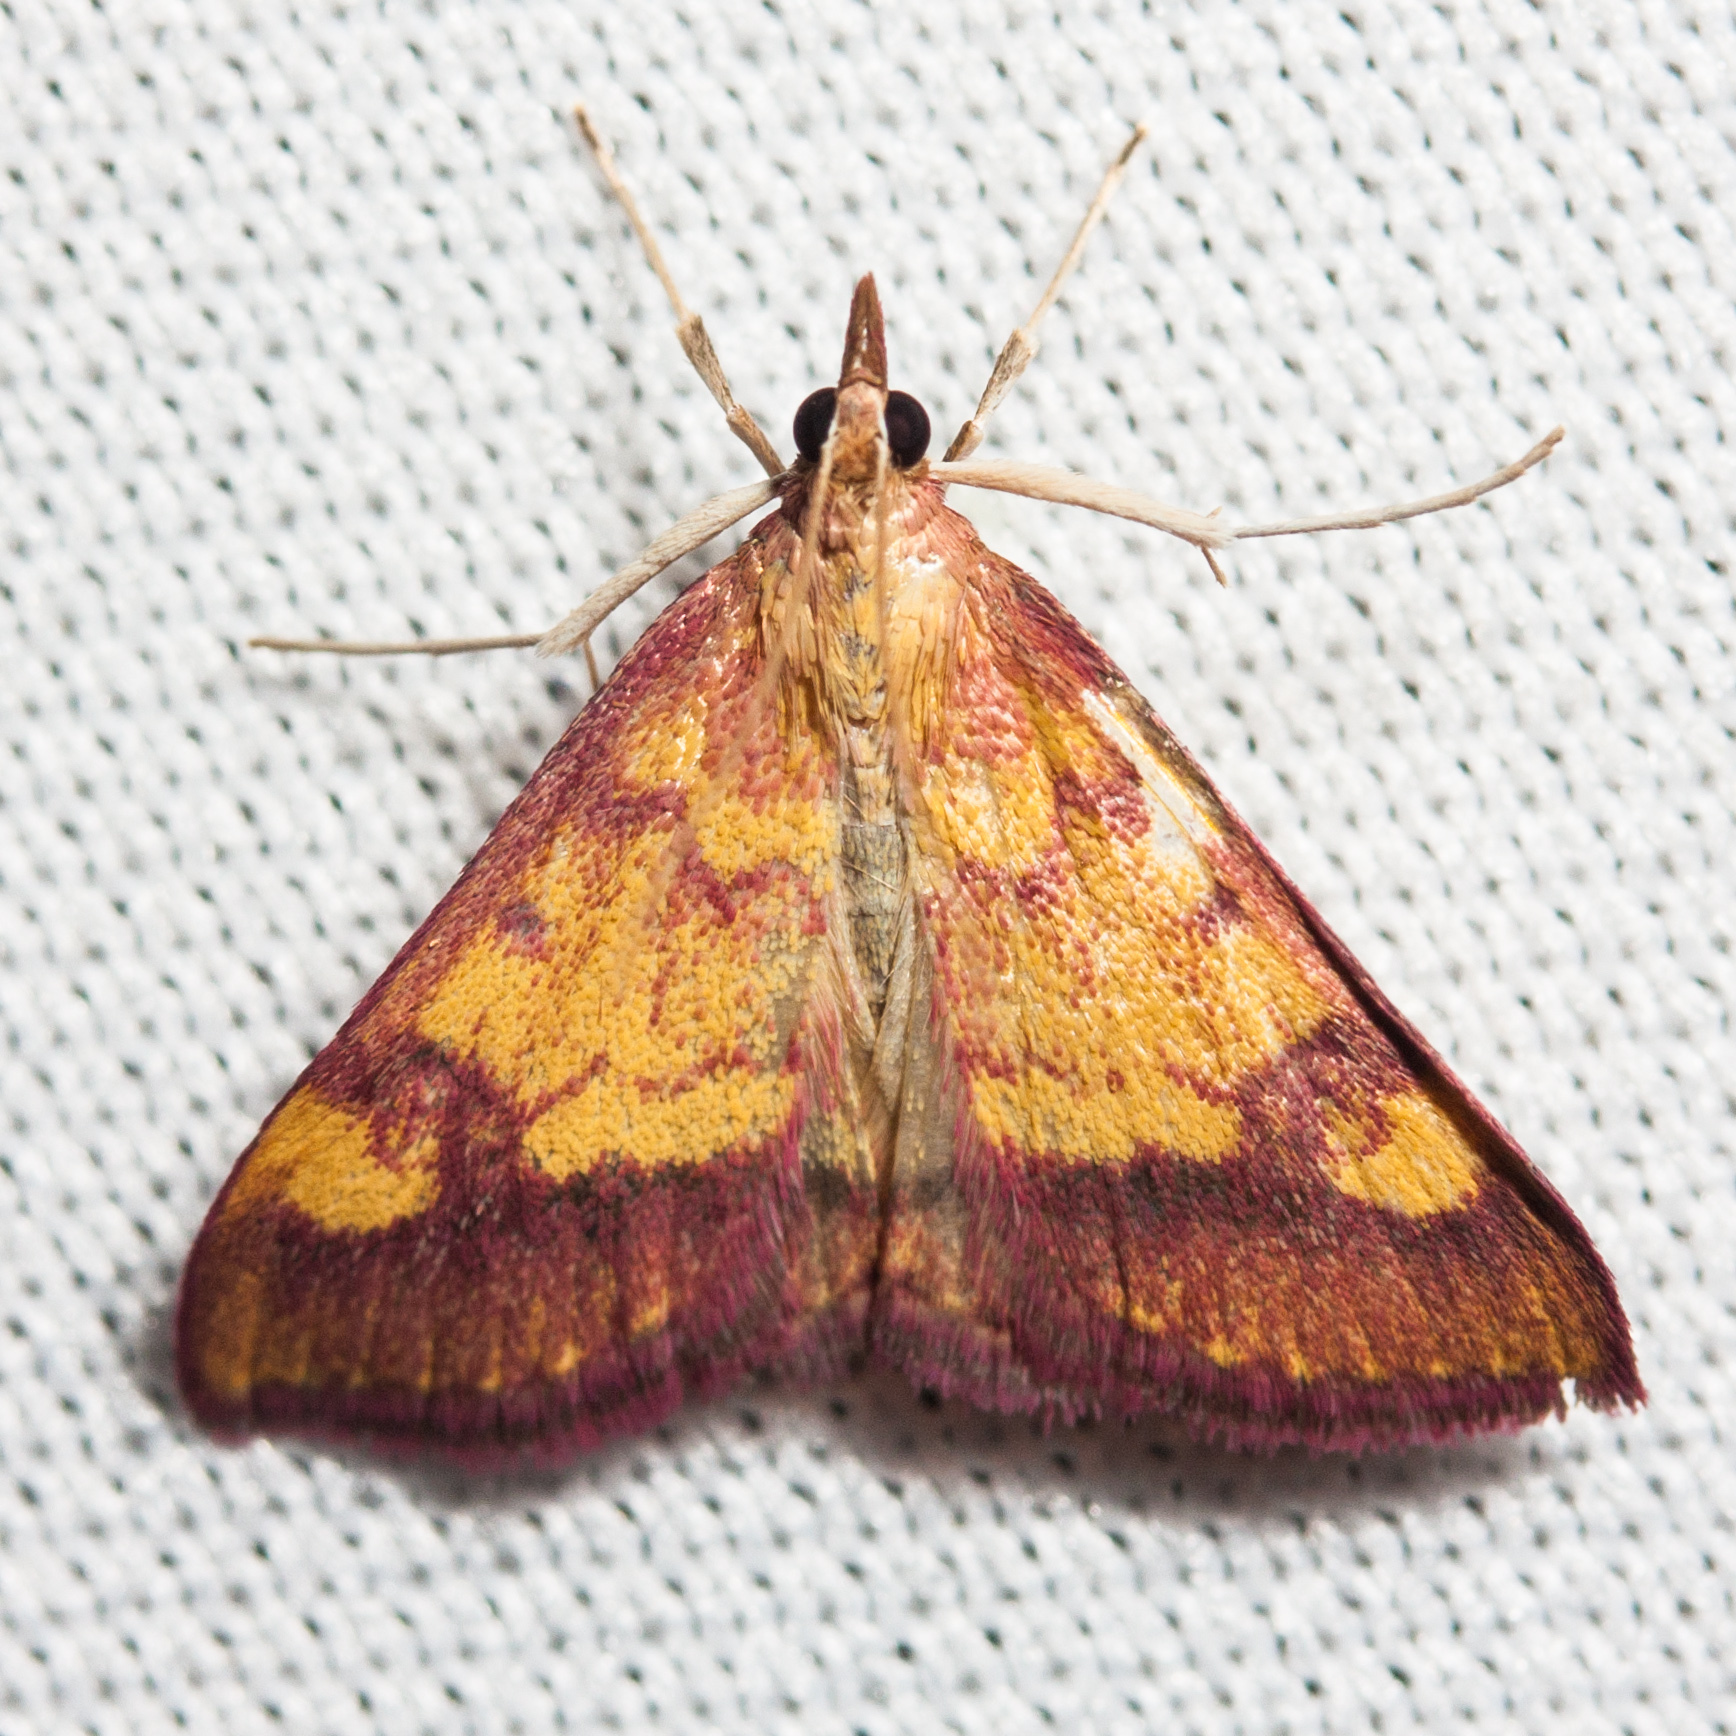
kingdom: Animalia
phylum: Arthropoda
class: Insecta
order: Lepidoptera
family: Crambidae
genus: Pyrausta
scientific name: Pyrausta perrubralis
